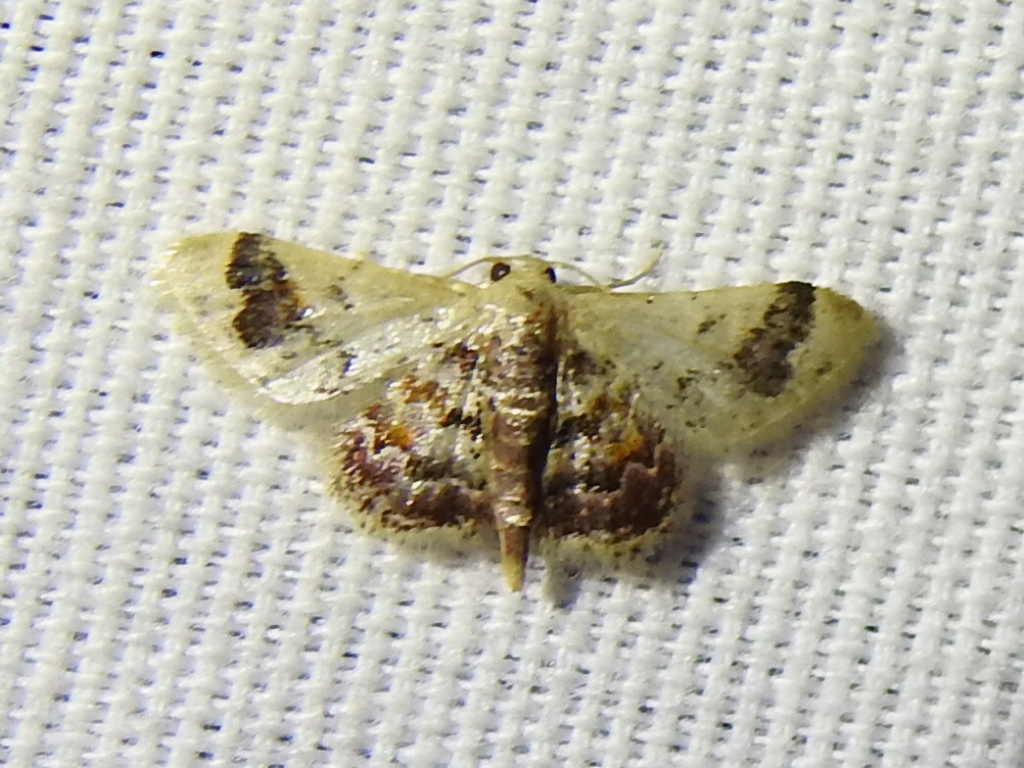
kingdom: Animalia
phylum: Arthropoda
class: Insecta
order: Lepidoptera
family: Geometridae
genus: Idaea
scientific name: Idaea asceta
